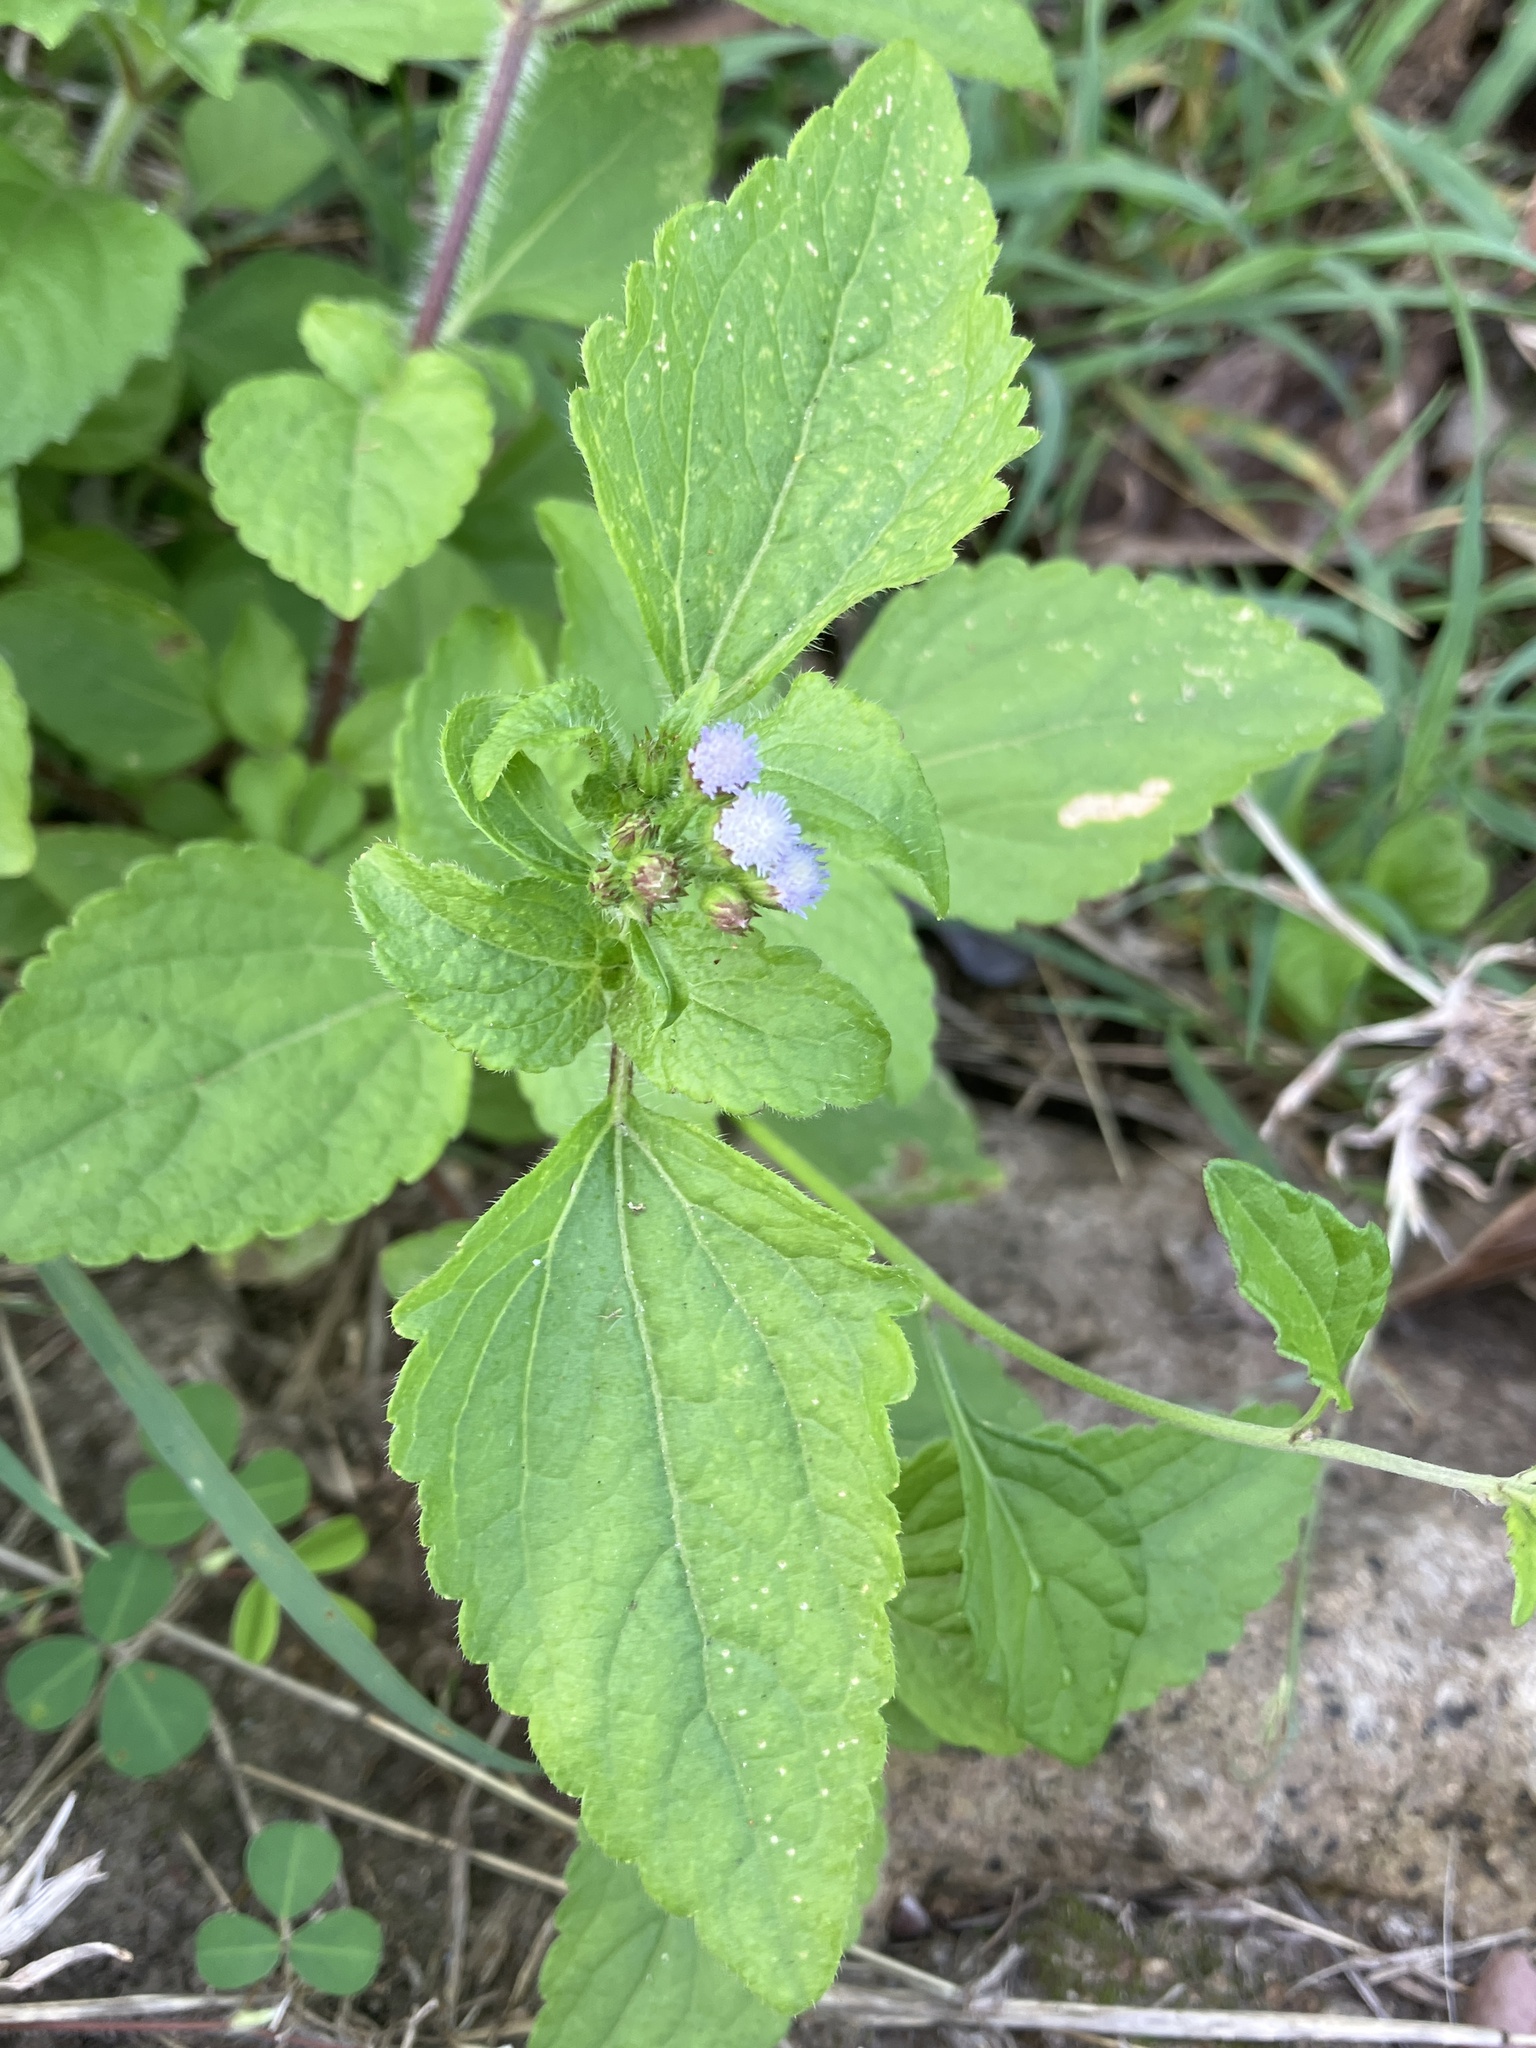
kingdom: Plantae
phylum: Tracheophyta
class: Magnoliopsida
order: Asterales
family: Asteraceae
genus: Ageratum
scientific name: Ageratum conyzoides
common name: Tropical whiteweed
